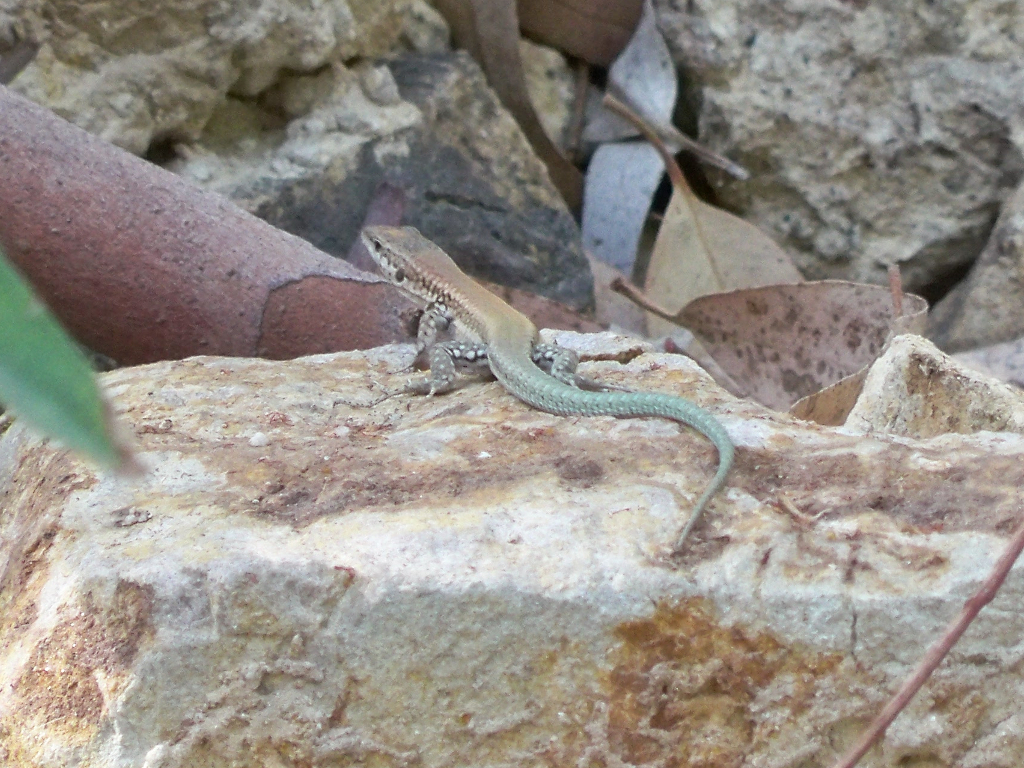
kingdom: Animalia
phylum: Chordata
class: Squamata
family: Lacertidae
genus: Podarcis
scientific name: Podarcis vaucheri
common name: Vaucher's wall lizard
